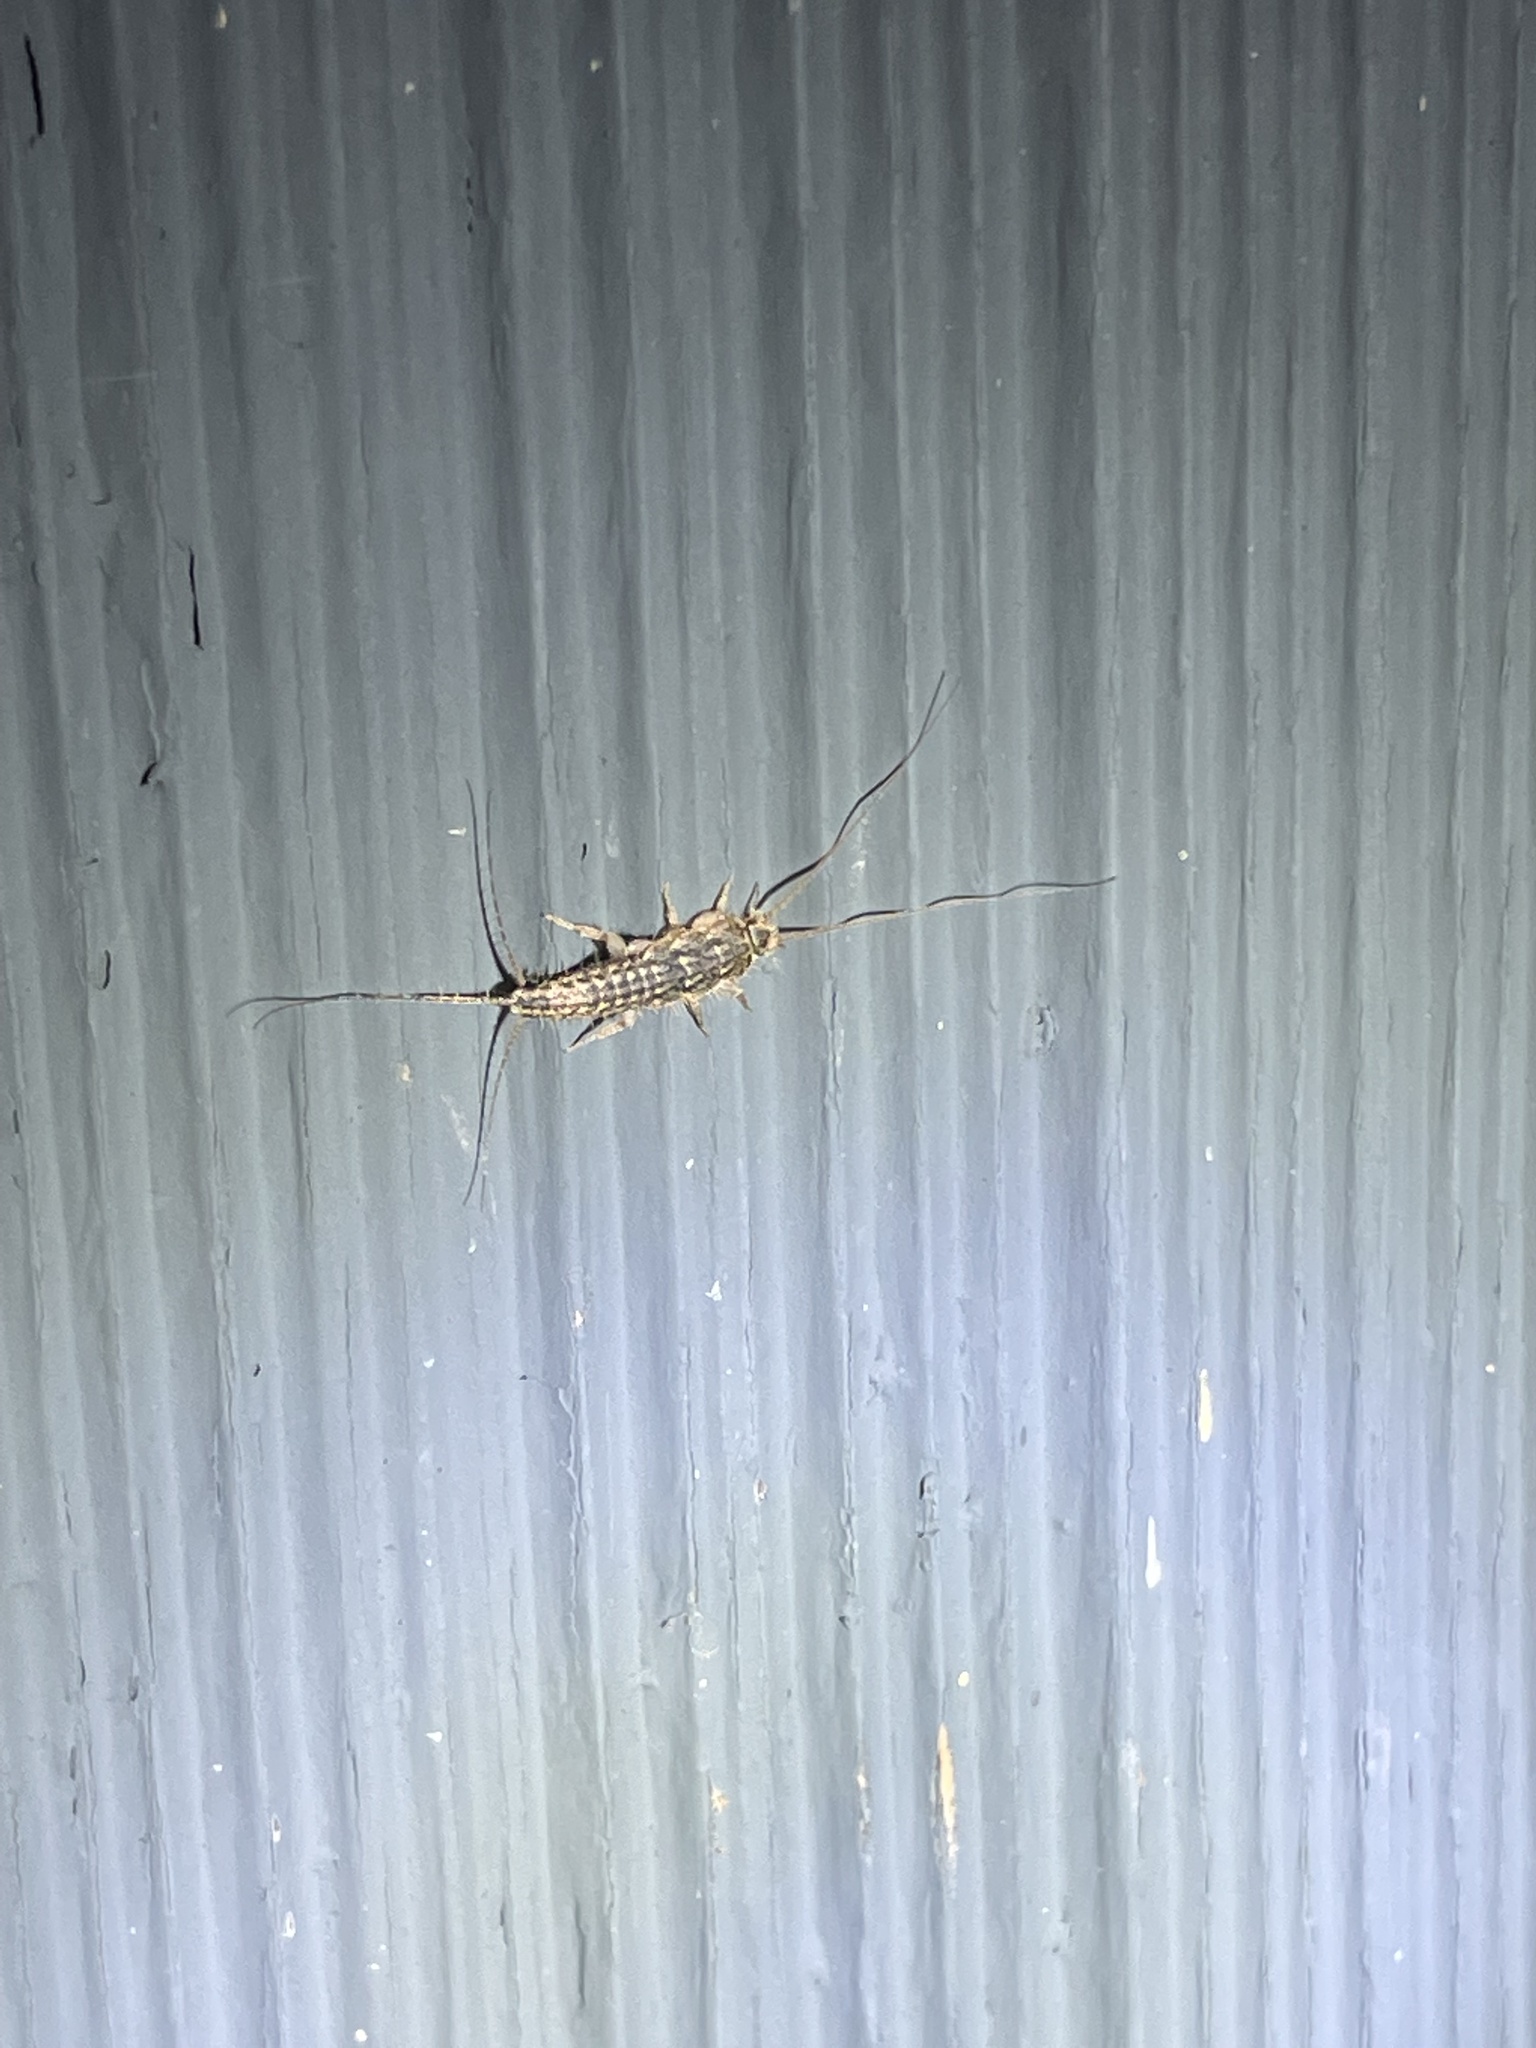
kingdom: Animalia
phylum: Arthropoda
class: Insecta
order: Zygentoma
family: Lepismatidae
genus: Ctenolepisma
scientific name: Ctenolepisma lineata
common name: Four-lined silverfish
